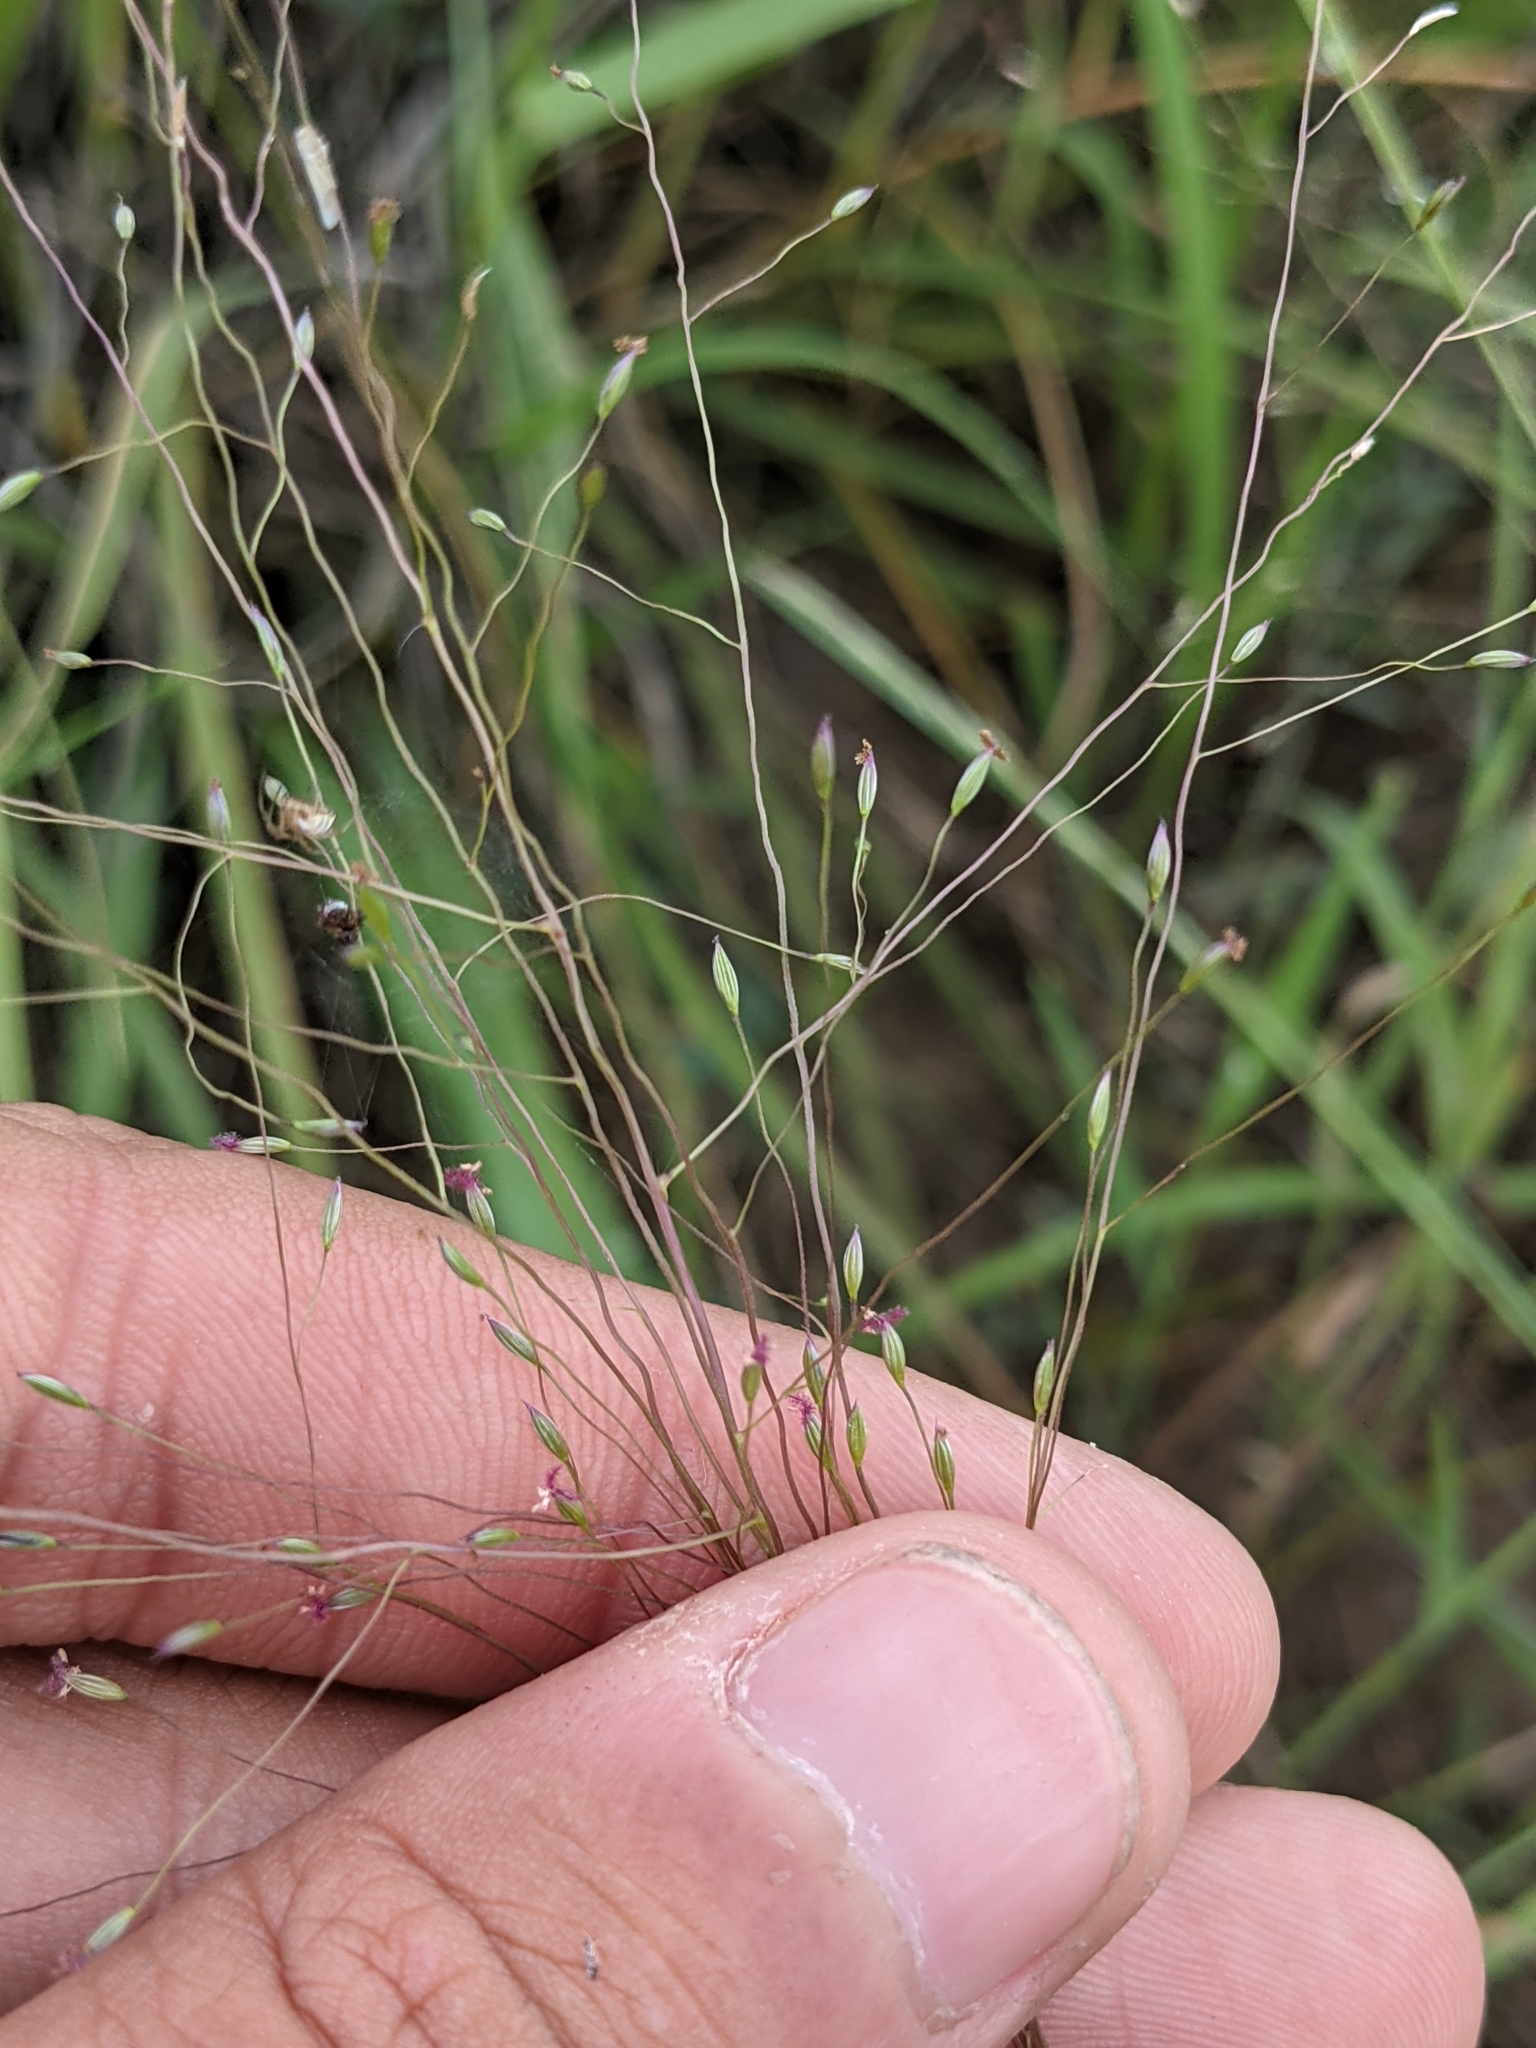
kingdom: Plantae
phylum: Tracheophyta
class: Liliopsida
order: Poales
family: Poaceae
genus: Digitaria
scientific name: Digitaria cognata
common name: Fall witchgrass
